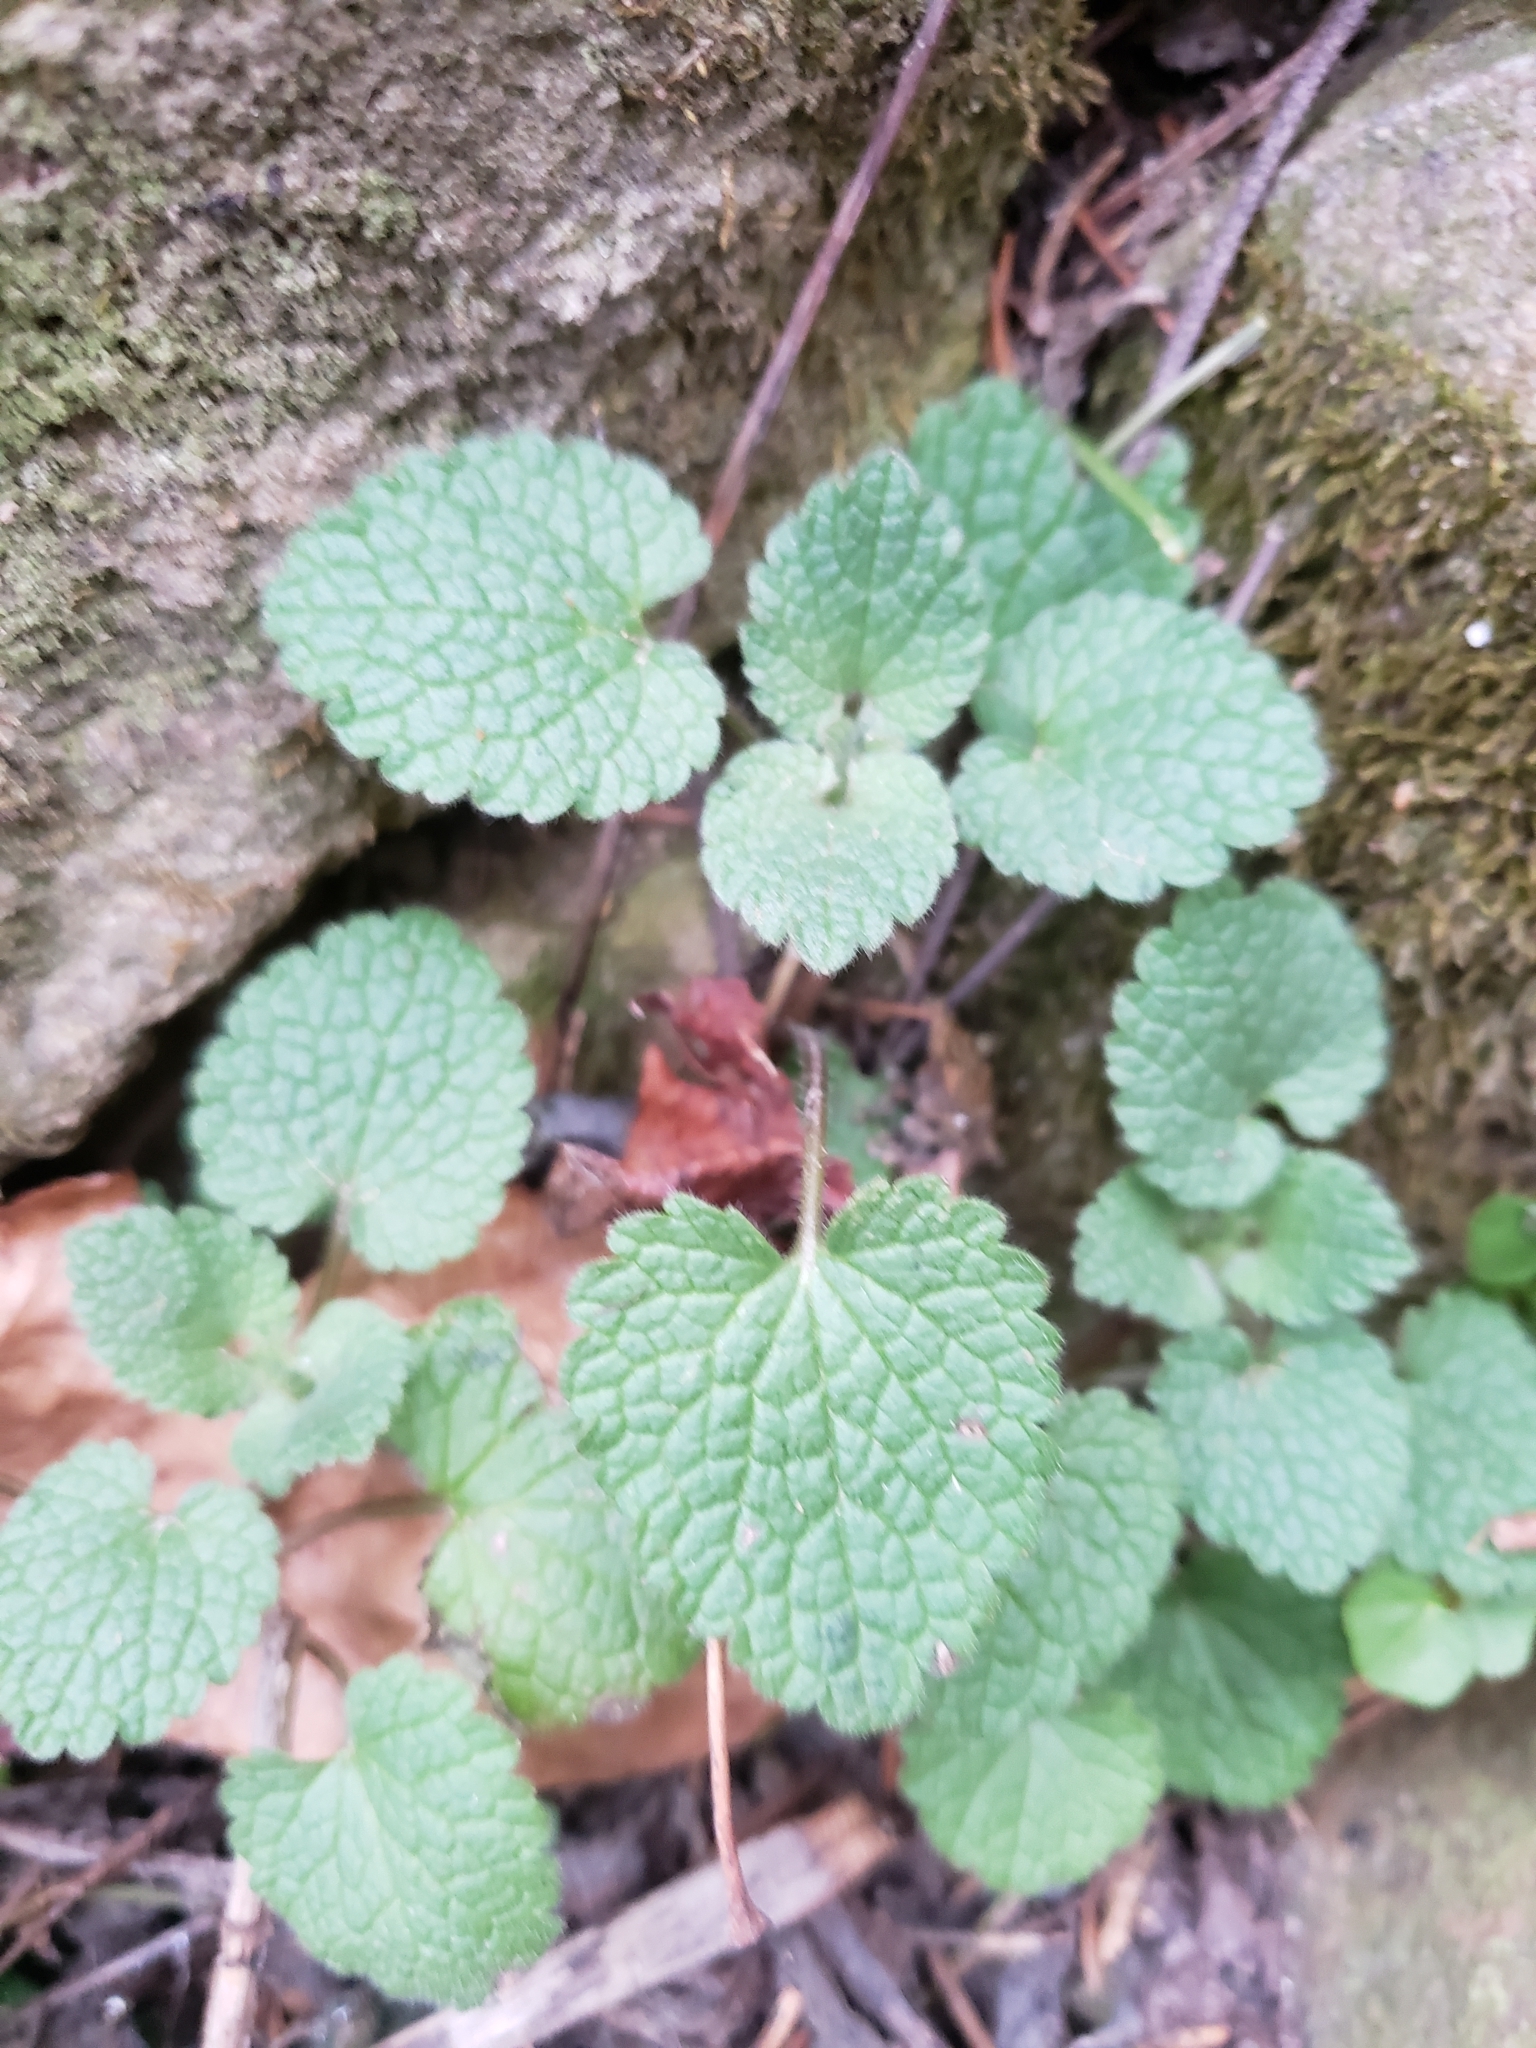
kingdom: Plantae
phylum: Tracheophyta
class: Magnoliopsida
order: Lamiales
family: Lamiaceae
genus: Lamium
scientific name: Lamium purpureum
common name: Red dead-nettle
